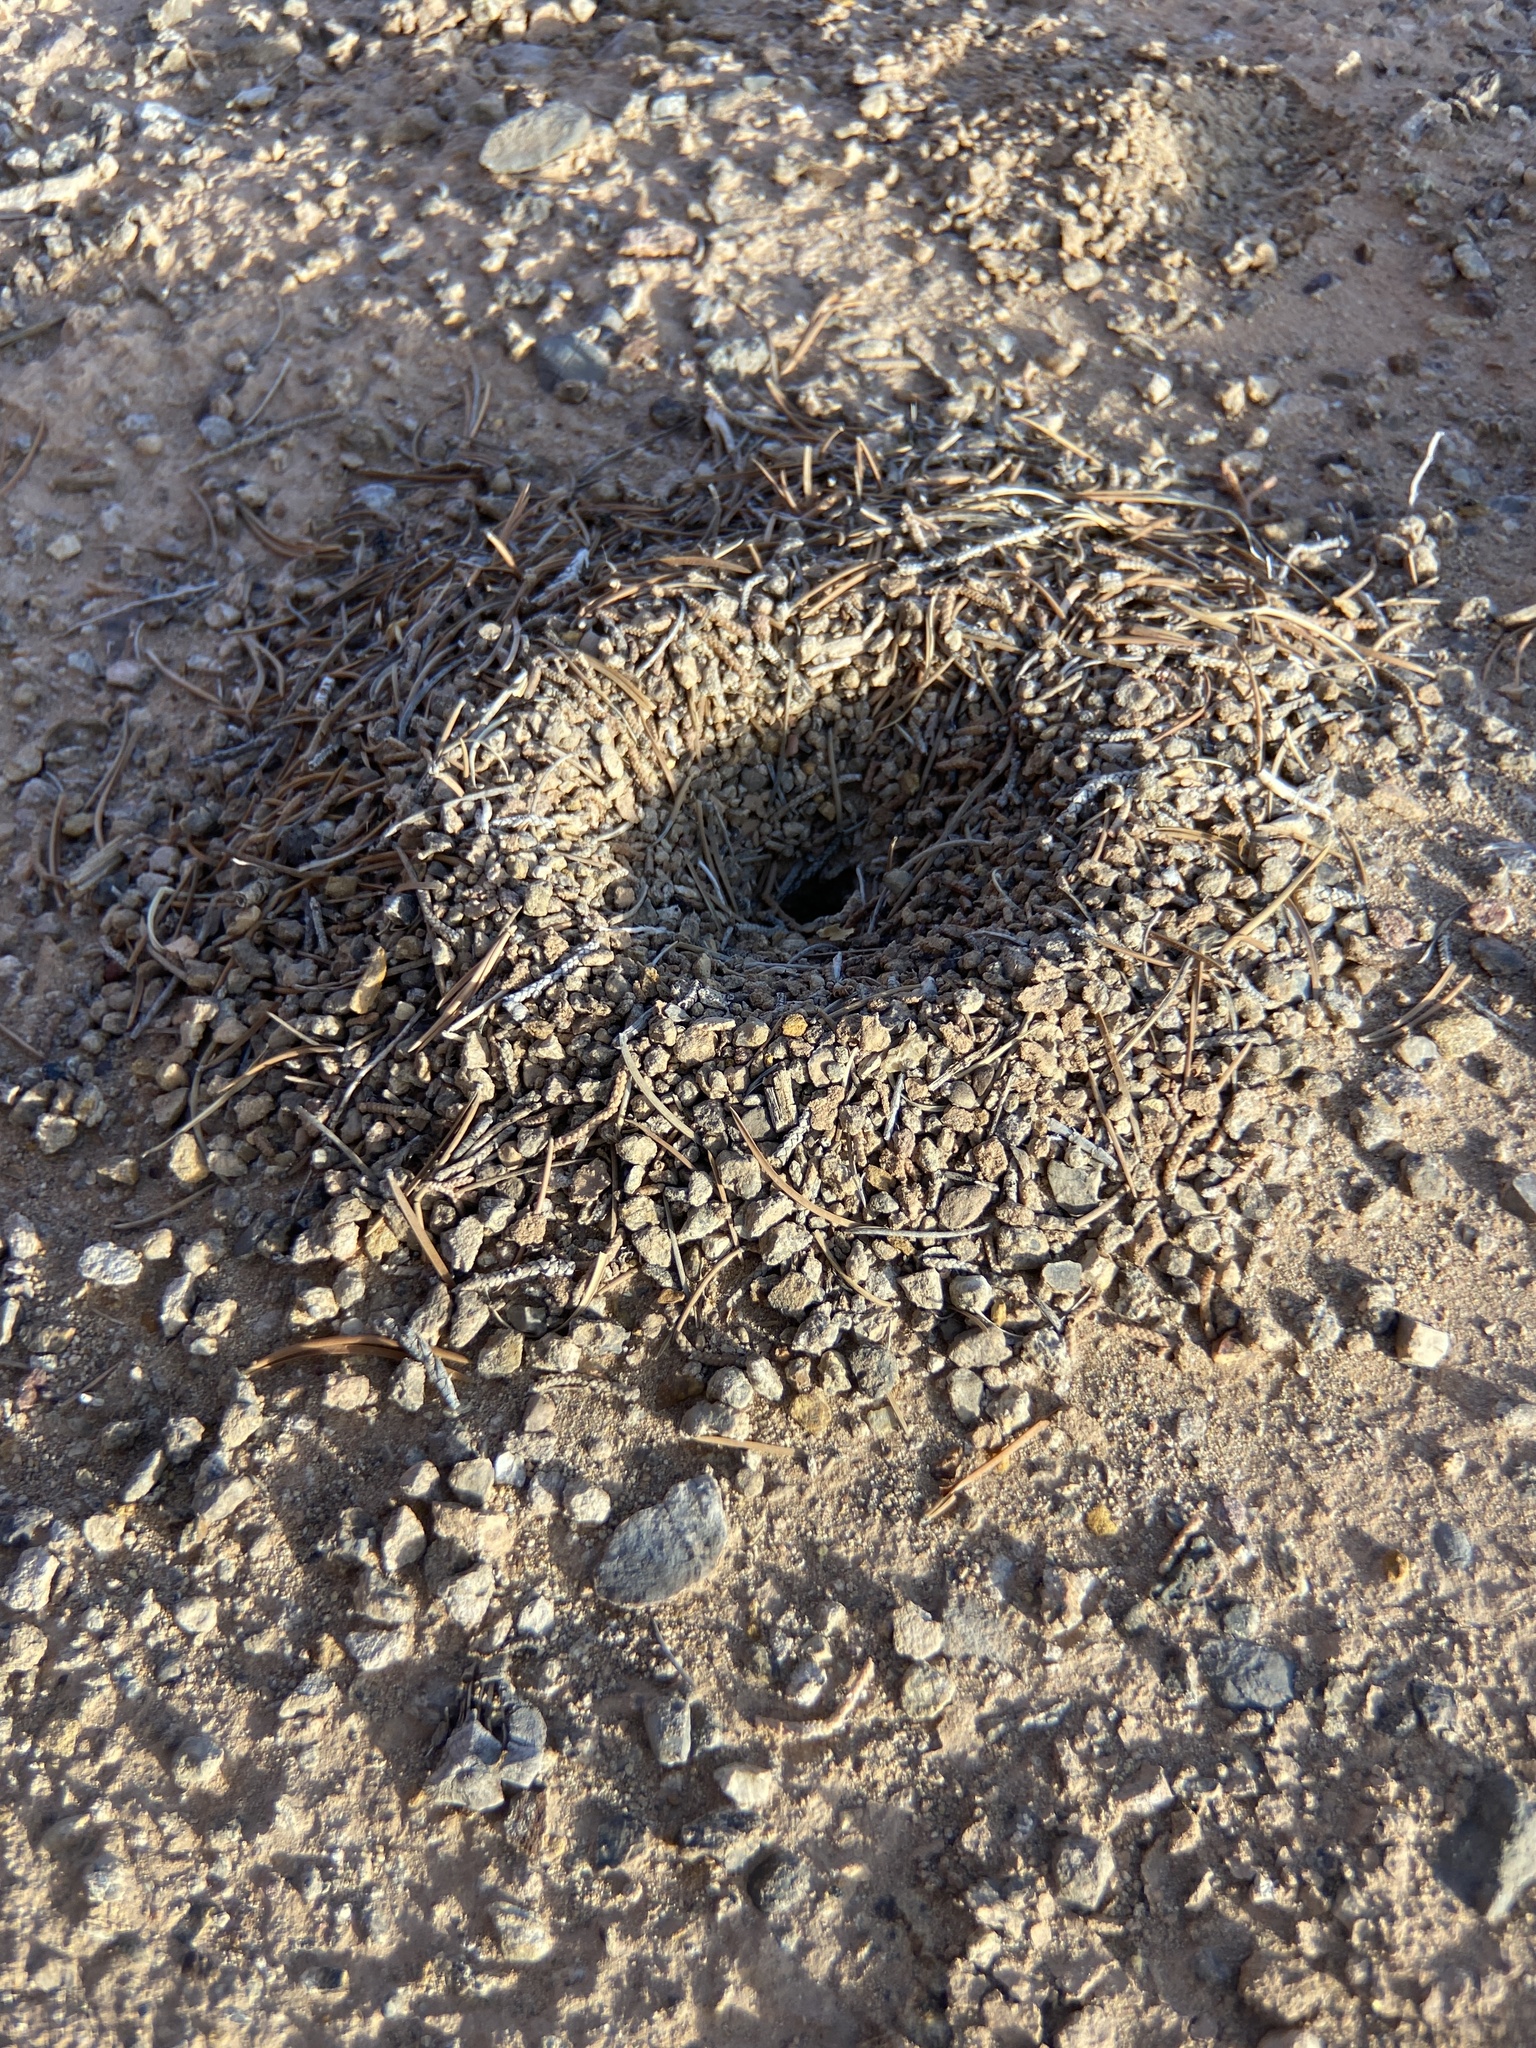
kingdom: Animalia
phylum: Arthropoda
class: Insecta
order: Hymenoptera
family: Formicidae
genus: Myrmecocystus
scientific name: Myrmecocystus mexicanus
